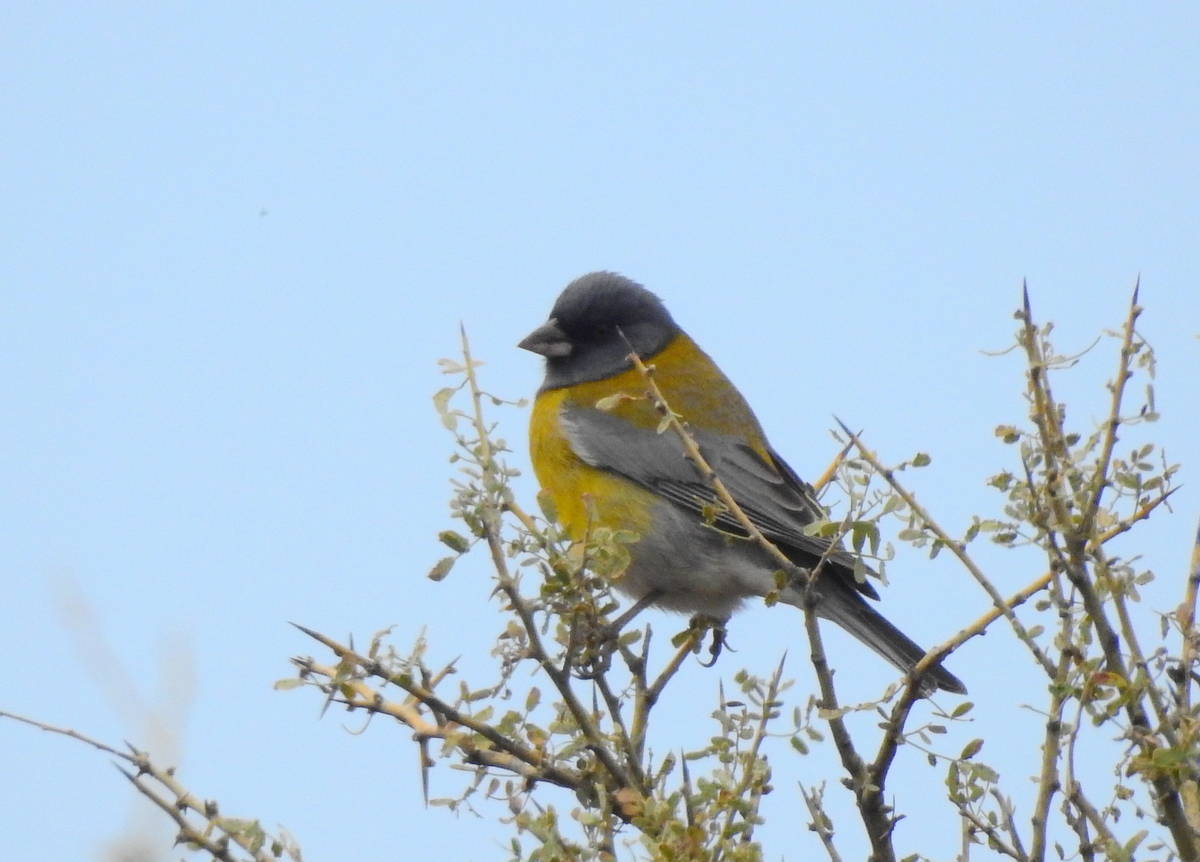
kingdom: Animalia
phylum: Chordata
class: Aves
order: Passeriformes
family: Thraupidae
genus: Phrygilus
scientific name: Phrygilus gayi
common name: Grey-hooded sierra finch
